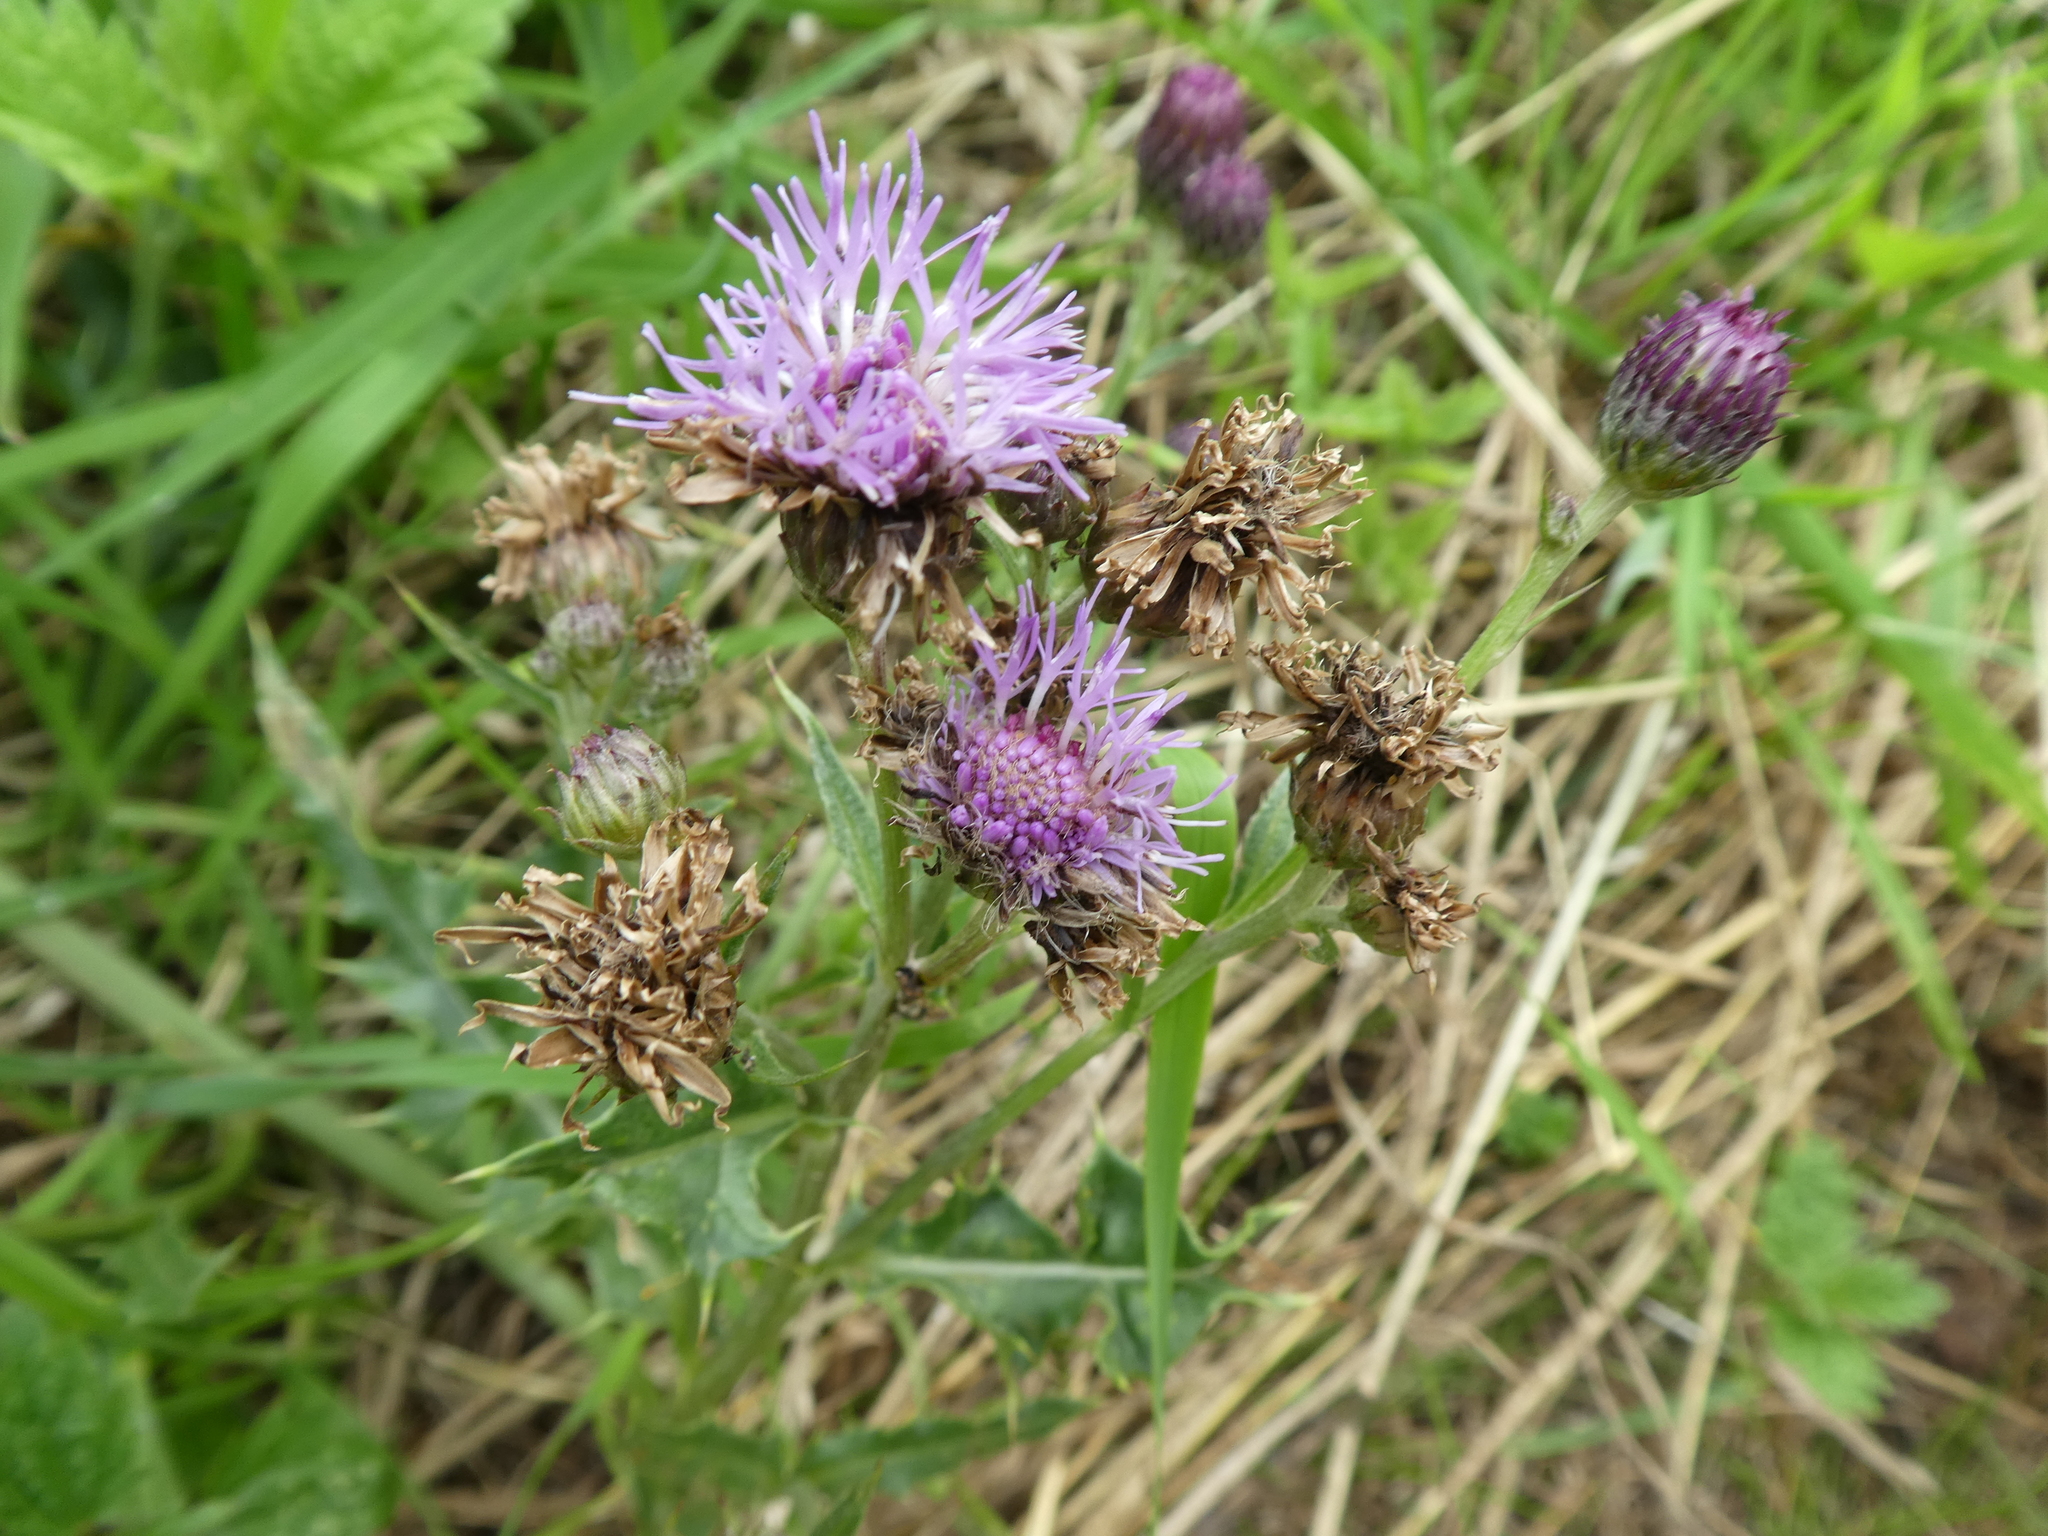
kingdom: Plantae
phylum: Tracheophyta
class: Magnoliopsida
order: Asterales
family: Asteraceae
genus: Cirsium
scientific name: Cirsium arvense
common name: Creeping thistle
